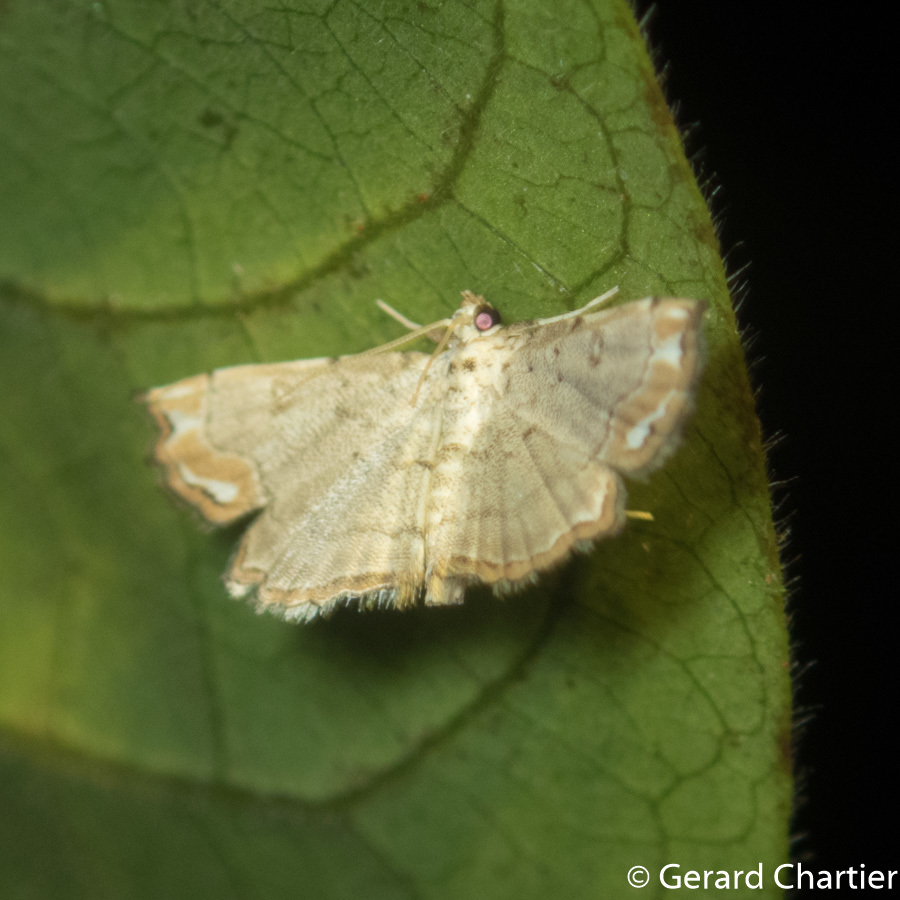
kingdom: Animalia
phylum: Arthropoda
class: Insecta
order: Lepidoptera
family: Crambidae
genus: Lygomusotima
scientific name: Lygomusotima
